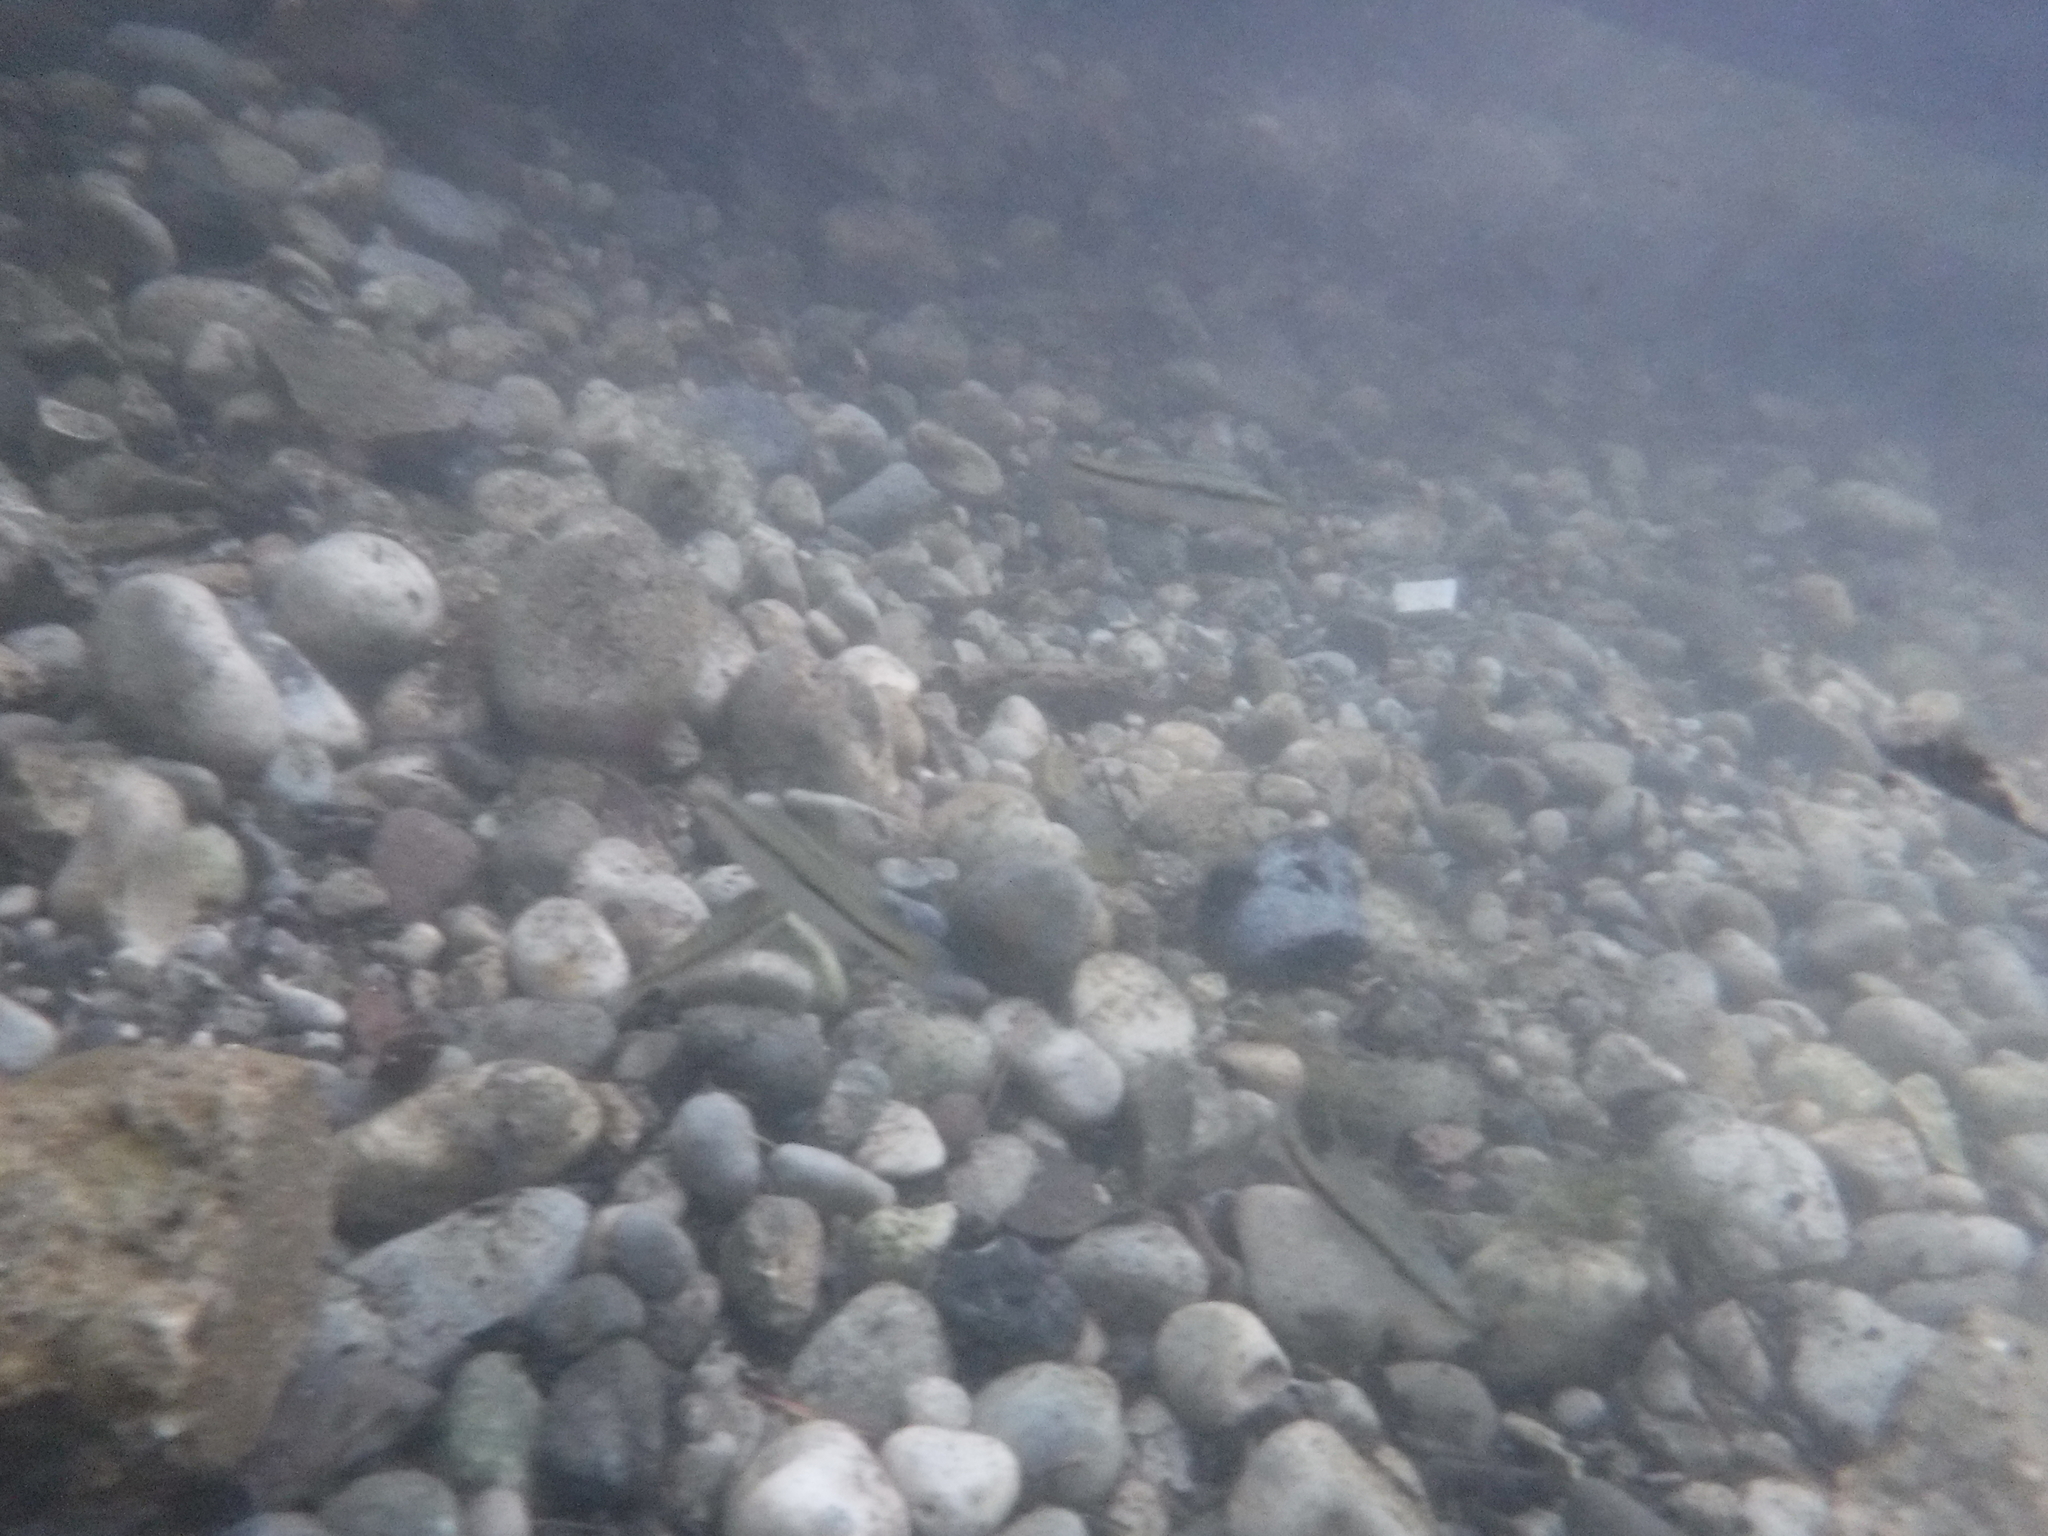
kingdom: Animalia
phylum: Chordata
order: Cypriniformes
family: Cyprinidae
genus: Rhinichthys
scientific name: Rhinichthys obtusus
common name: Western blacknose dace
